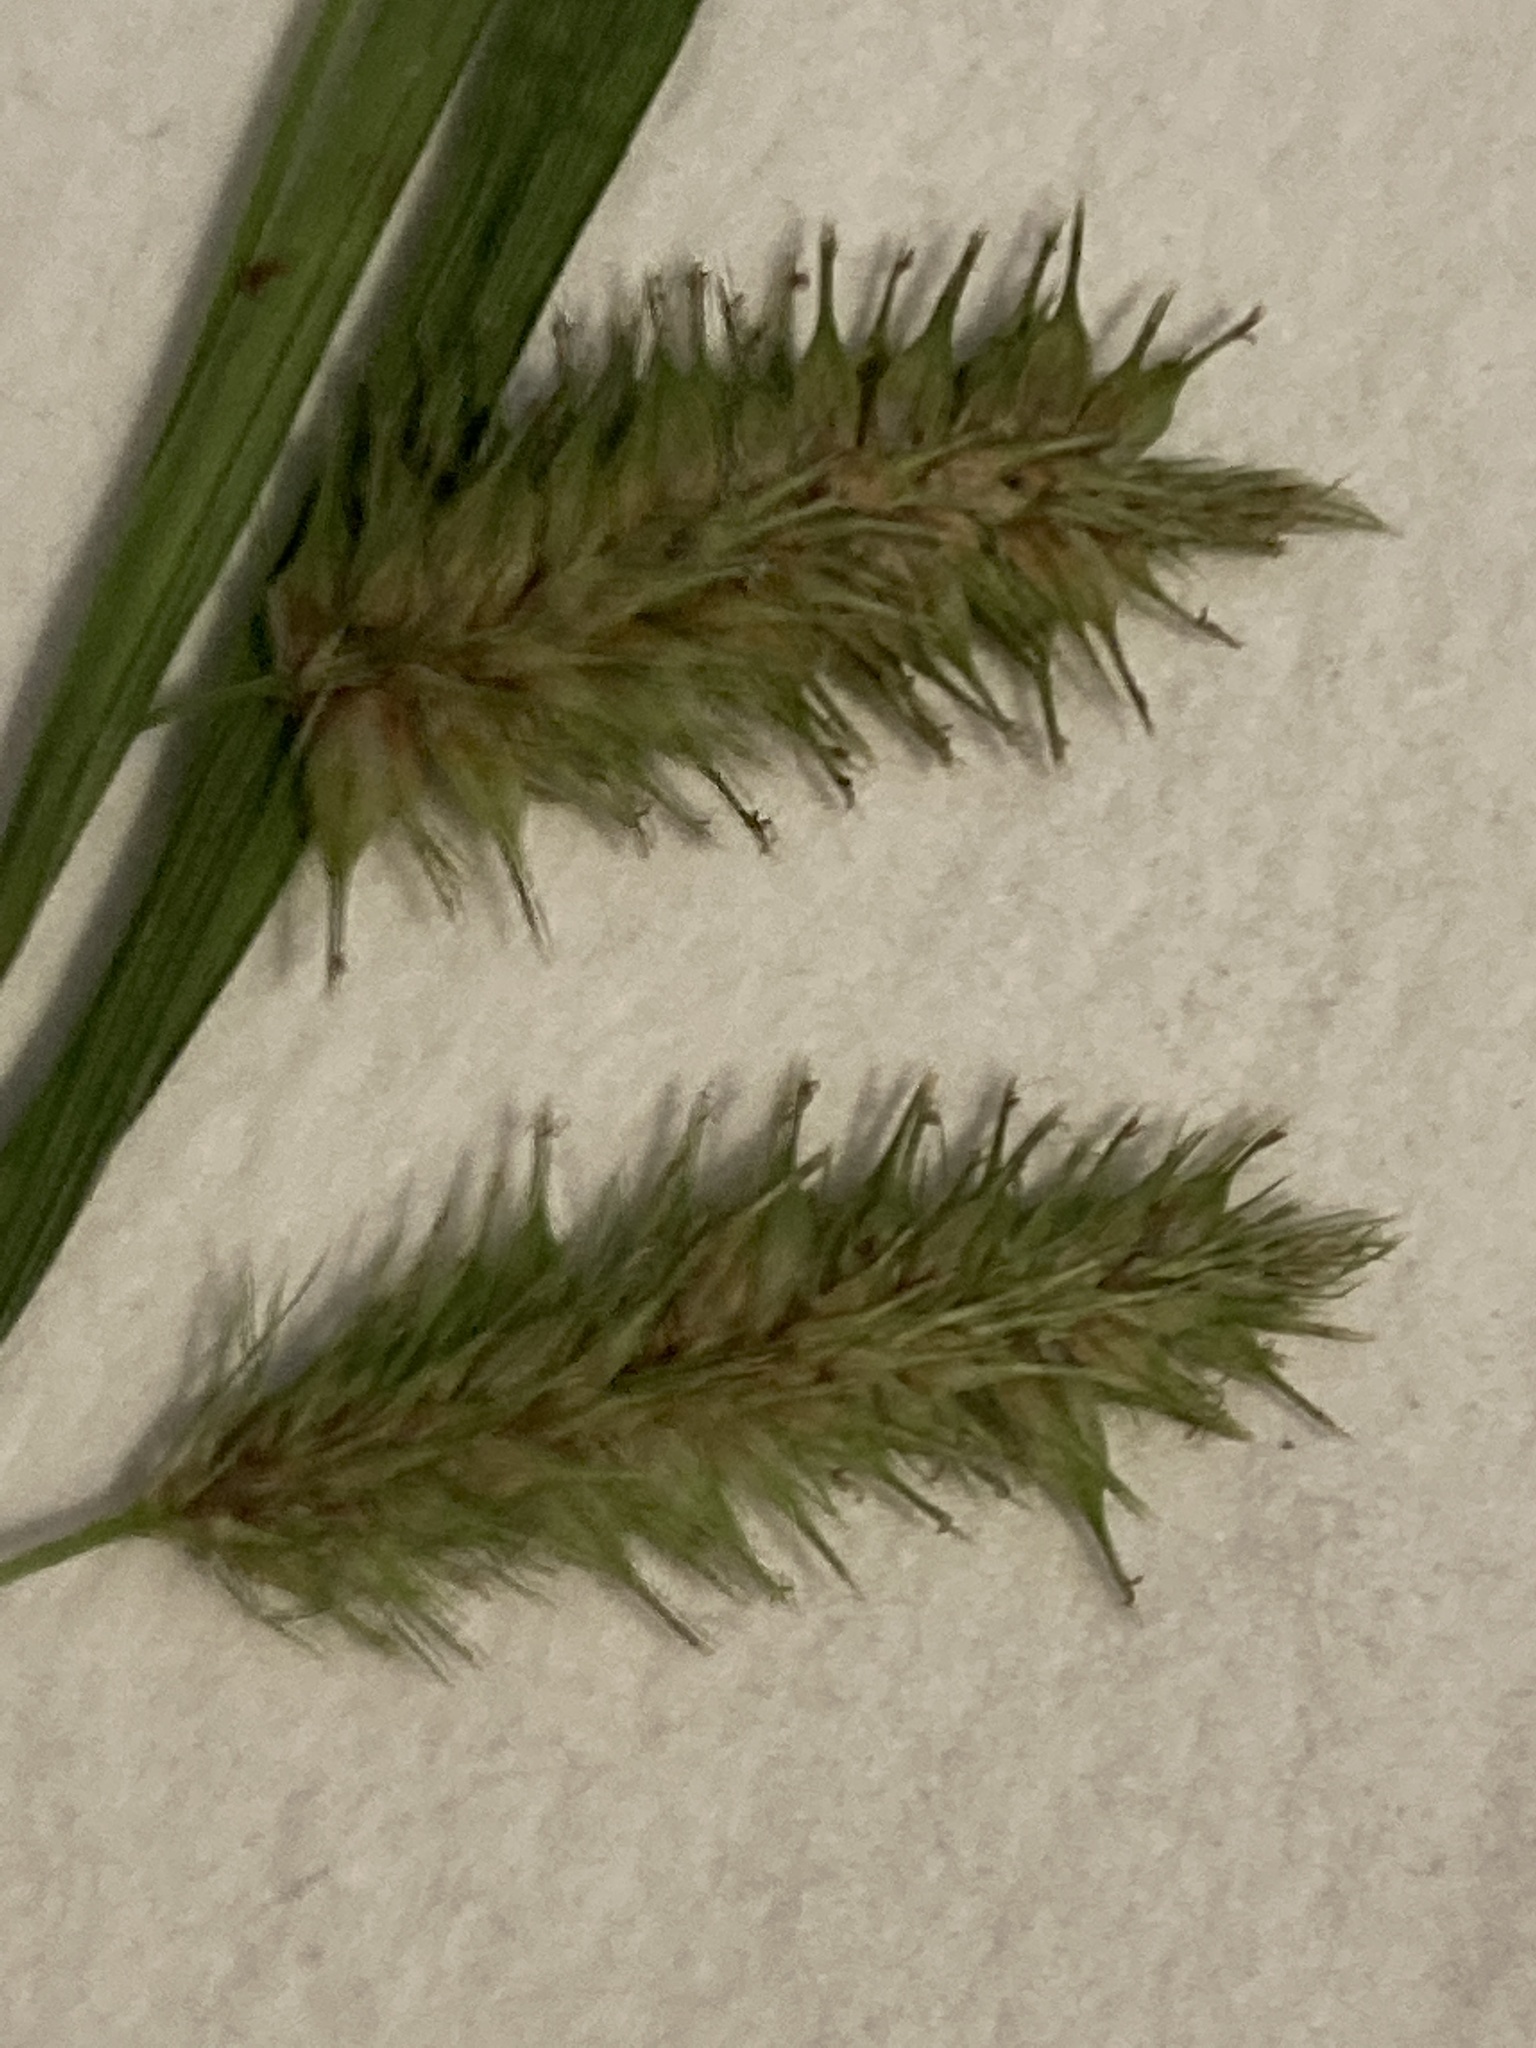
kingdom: Plantae
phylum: Tracheophyta
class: Liliopsida
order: Poales
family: Cyperaceae
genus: Carex
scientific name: Carex hystericina
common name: Bottlebrush sedge
